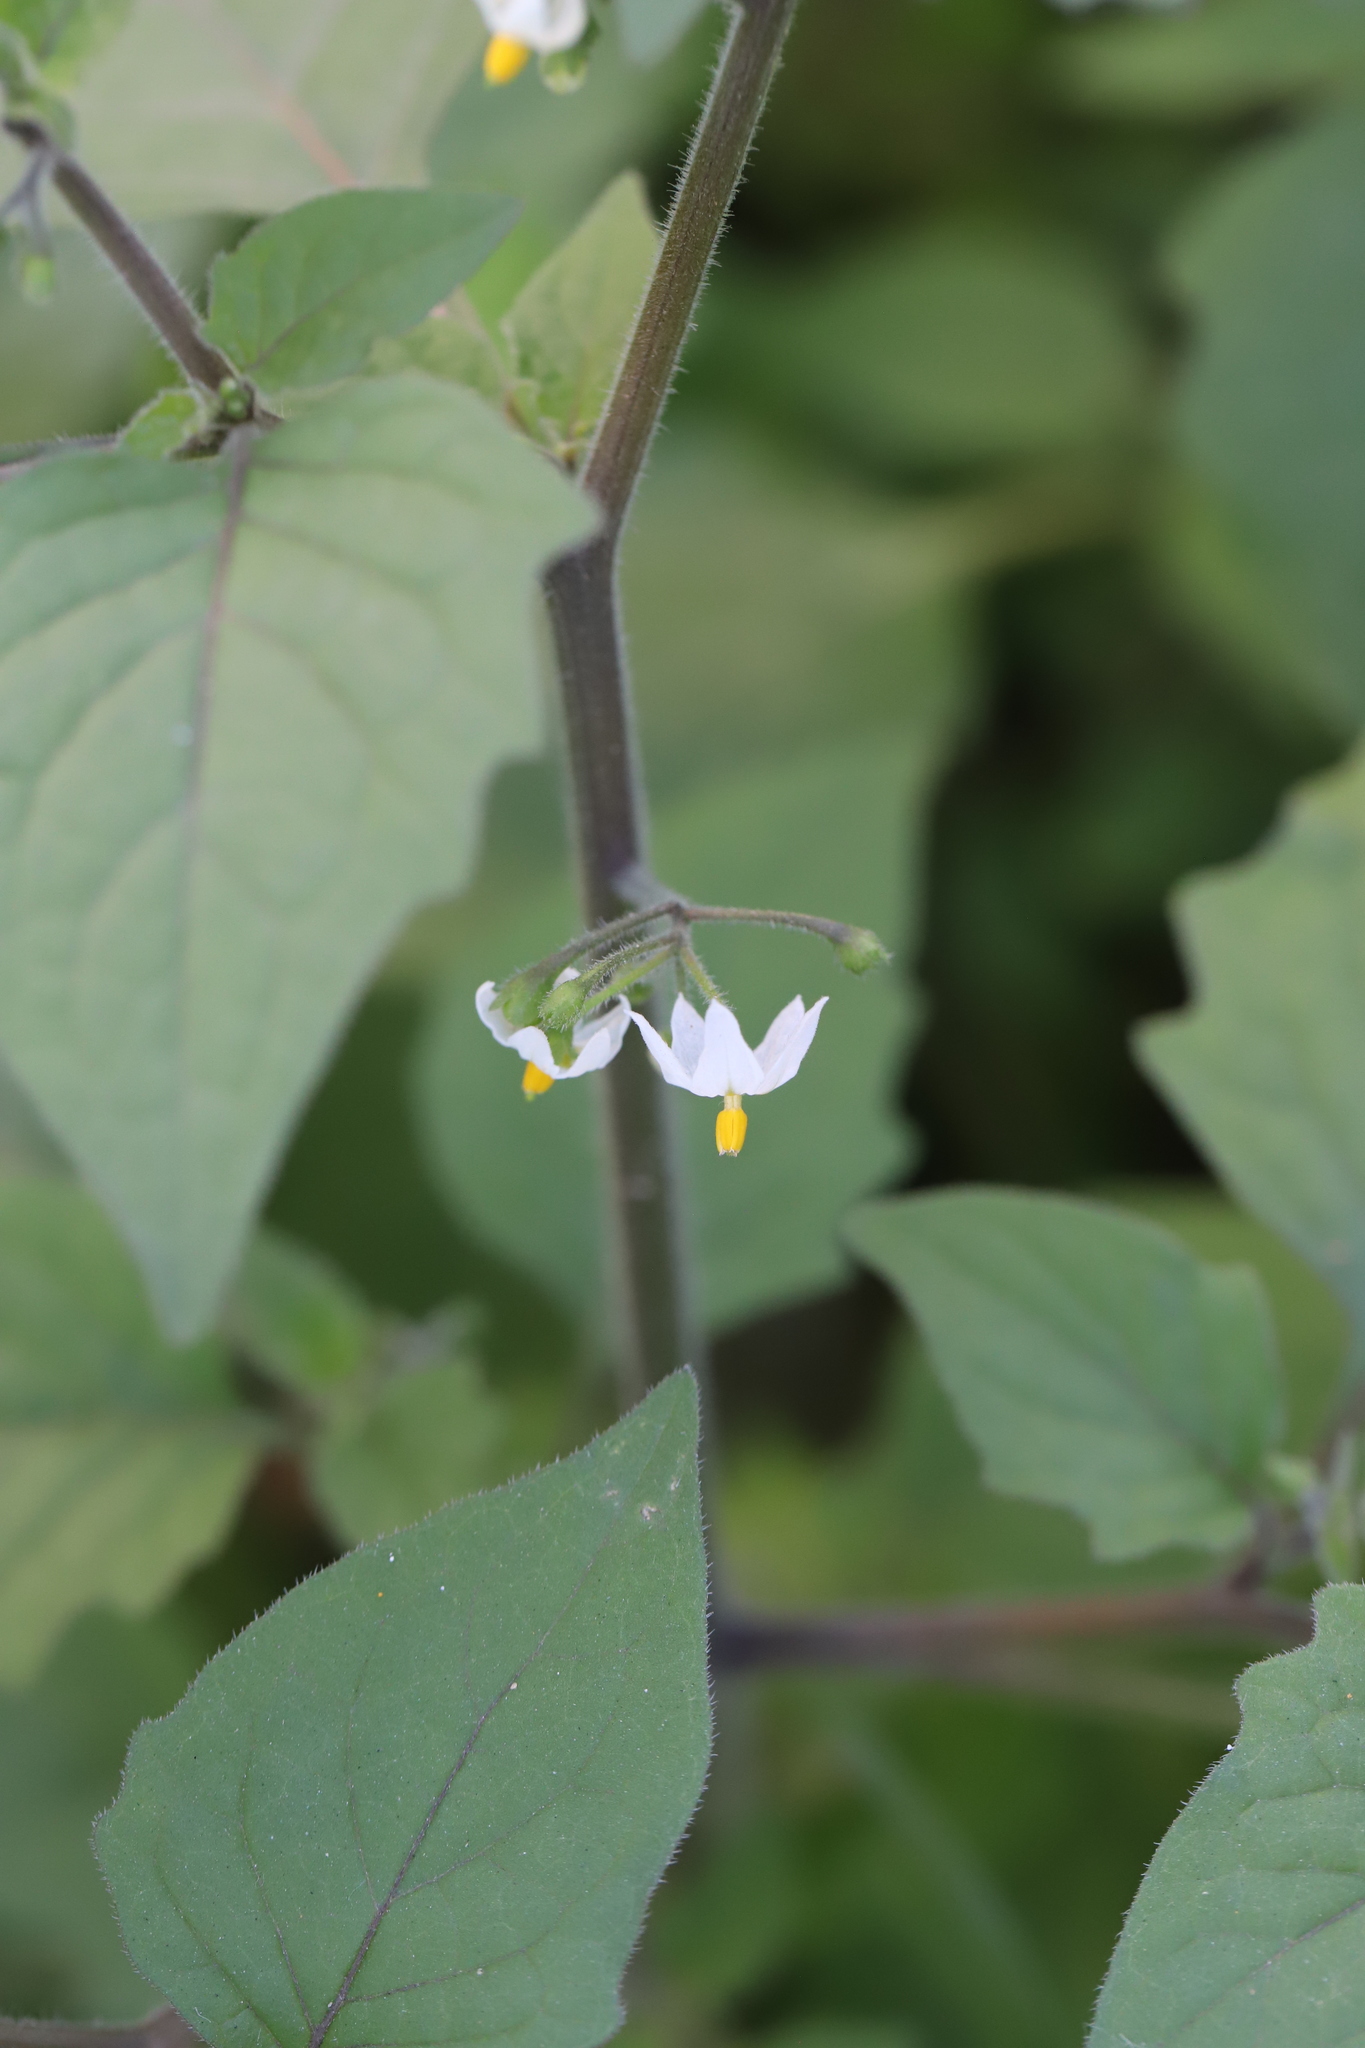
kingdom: Plantae
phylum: Tracheophyta
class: Magnoliopsida
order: Solanales
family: Solanaceae
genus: Solanum
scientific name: Solanum nigrum
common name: Black nightshade
